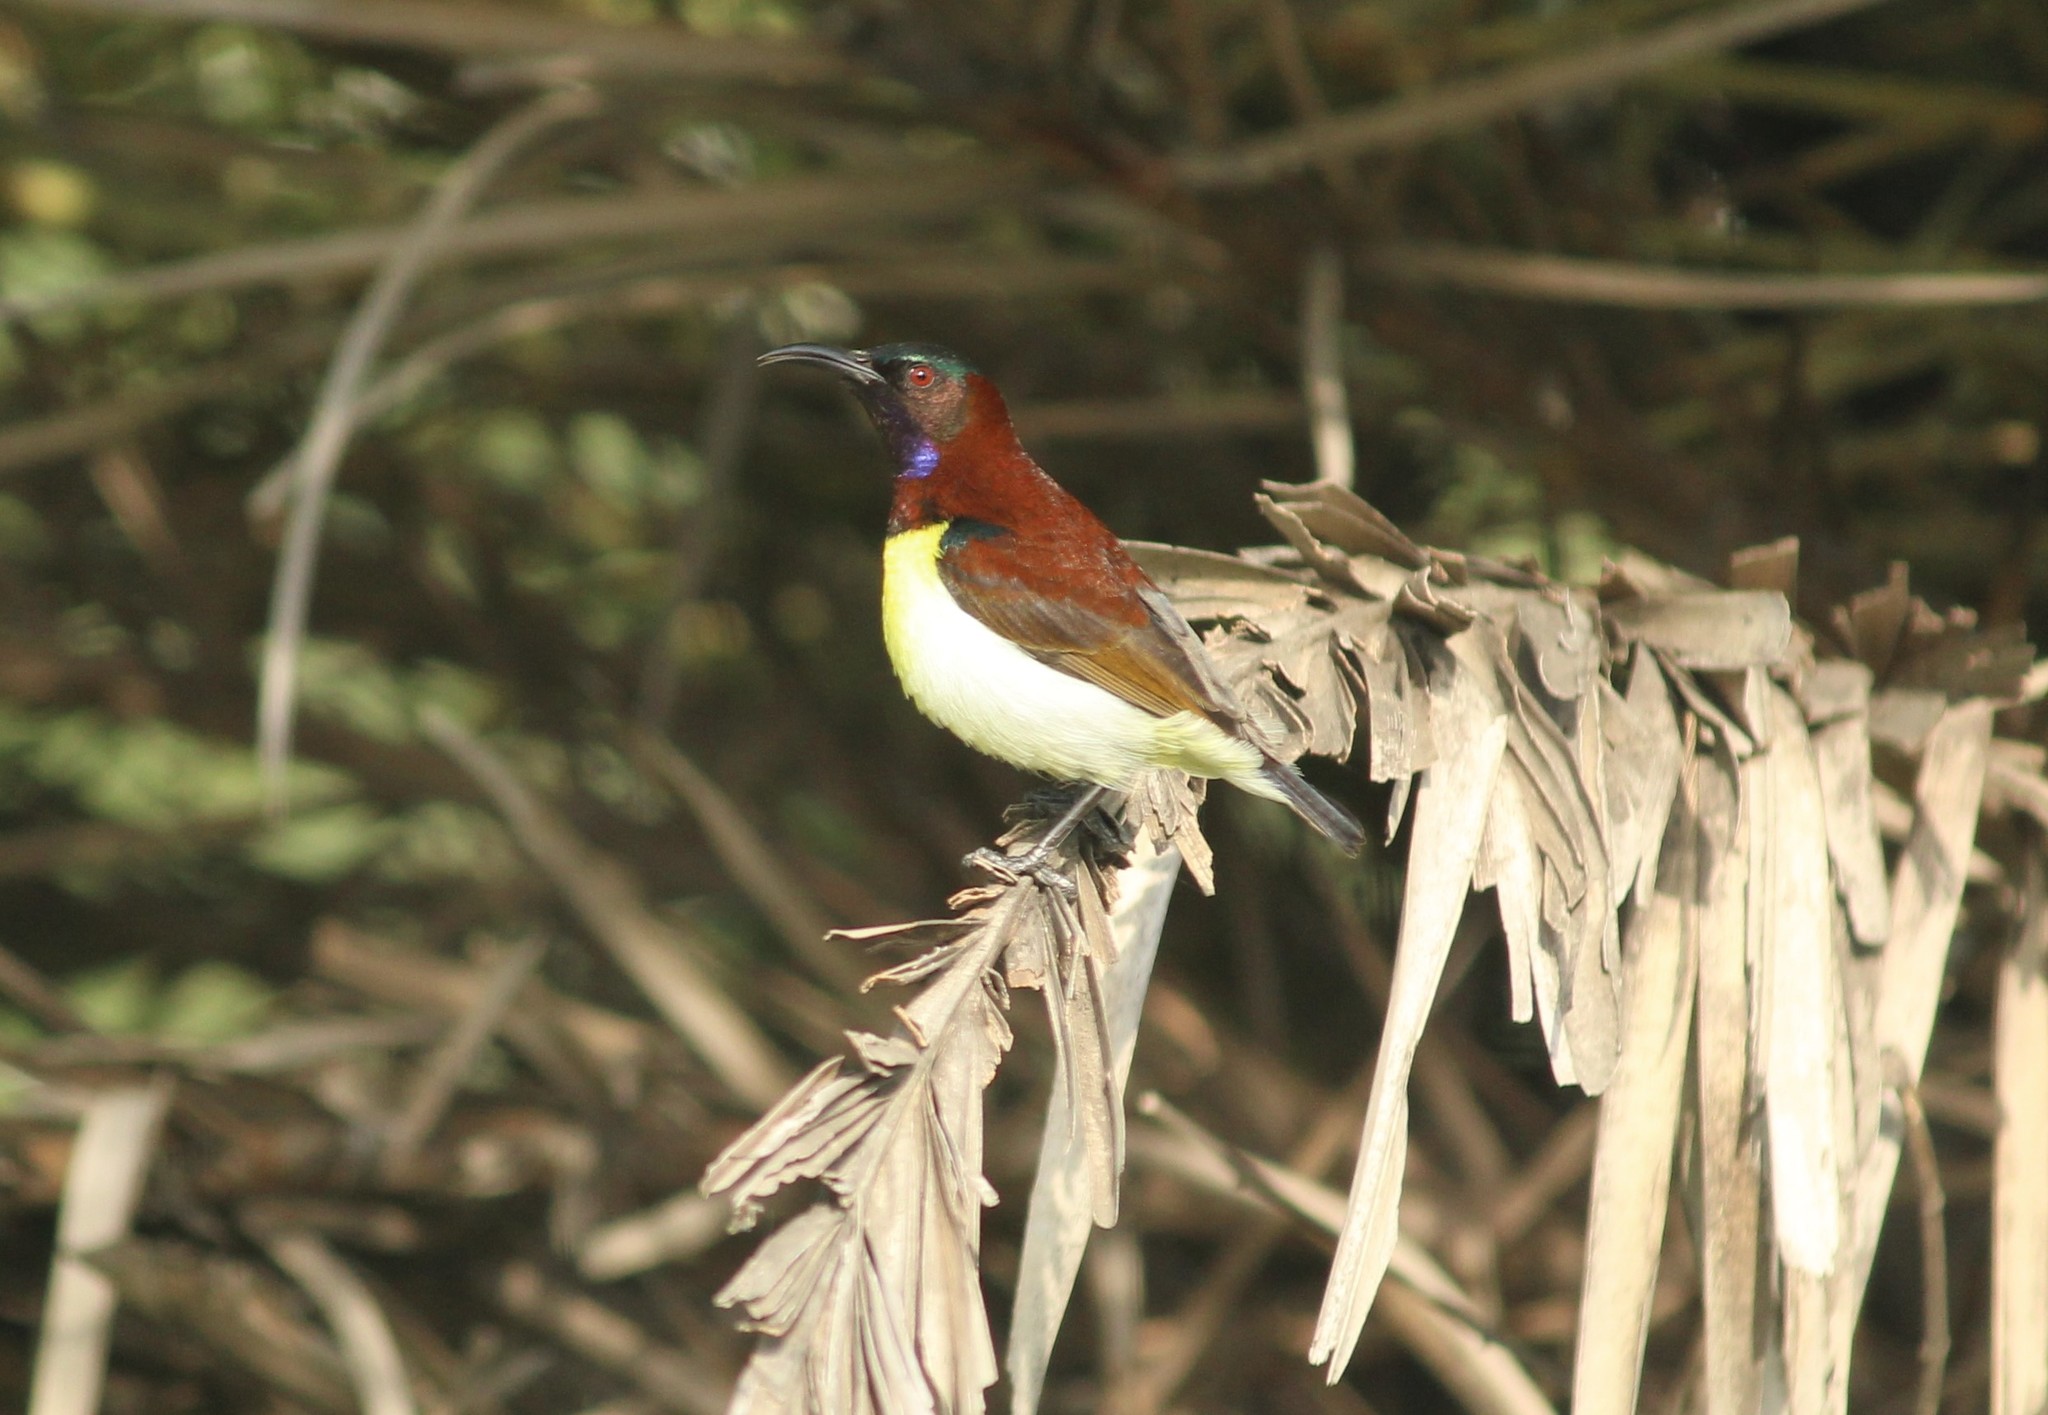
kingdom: Animalia
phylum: Chordata
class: Aves
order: Passeriformes
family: Nectariniidae
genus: Leptocoma
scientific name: Leptocoma zeylonica
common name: Purple-rumped sunbird
